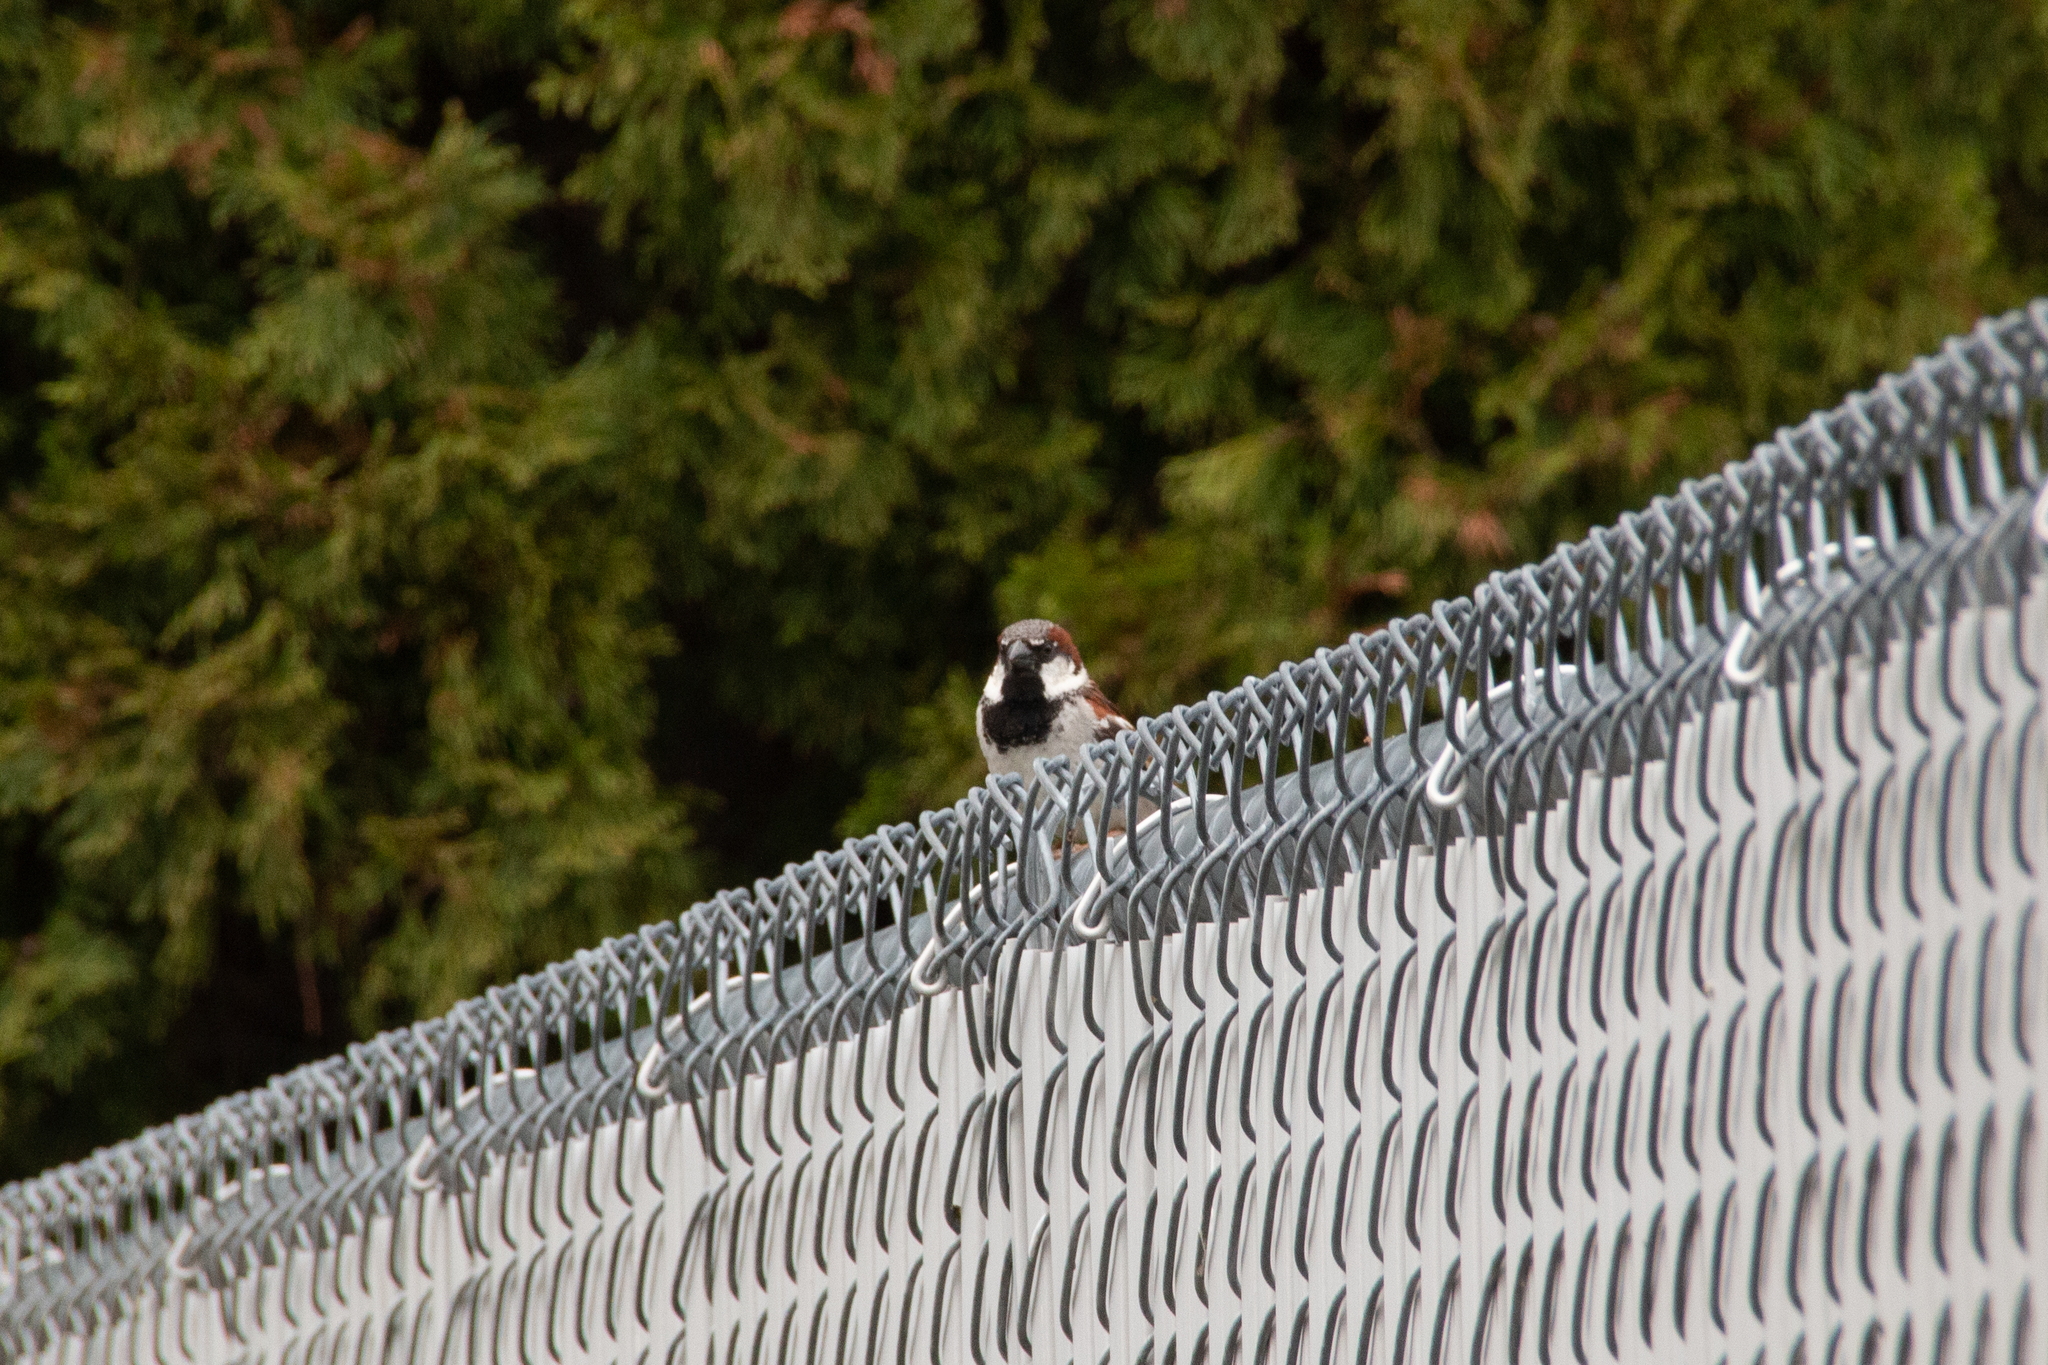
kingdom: Animalia
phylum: Chordata
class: Aves
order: Passeriformes
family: Passeridae
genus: Passer
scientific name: Passer domesticus
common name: House sparrow
